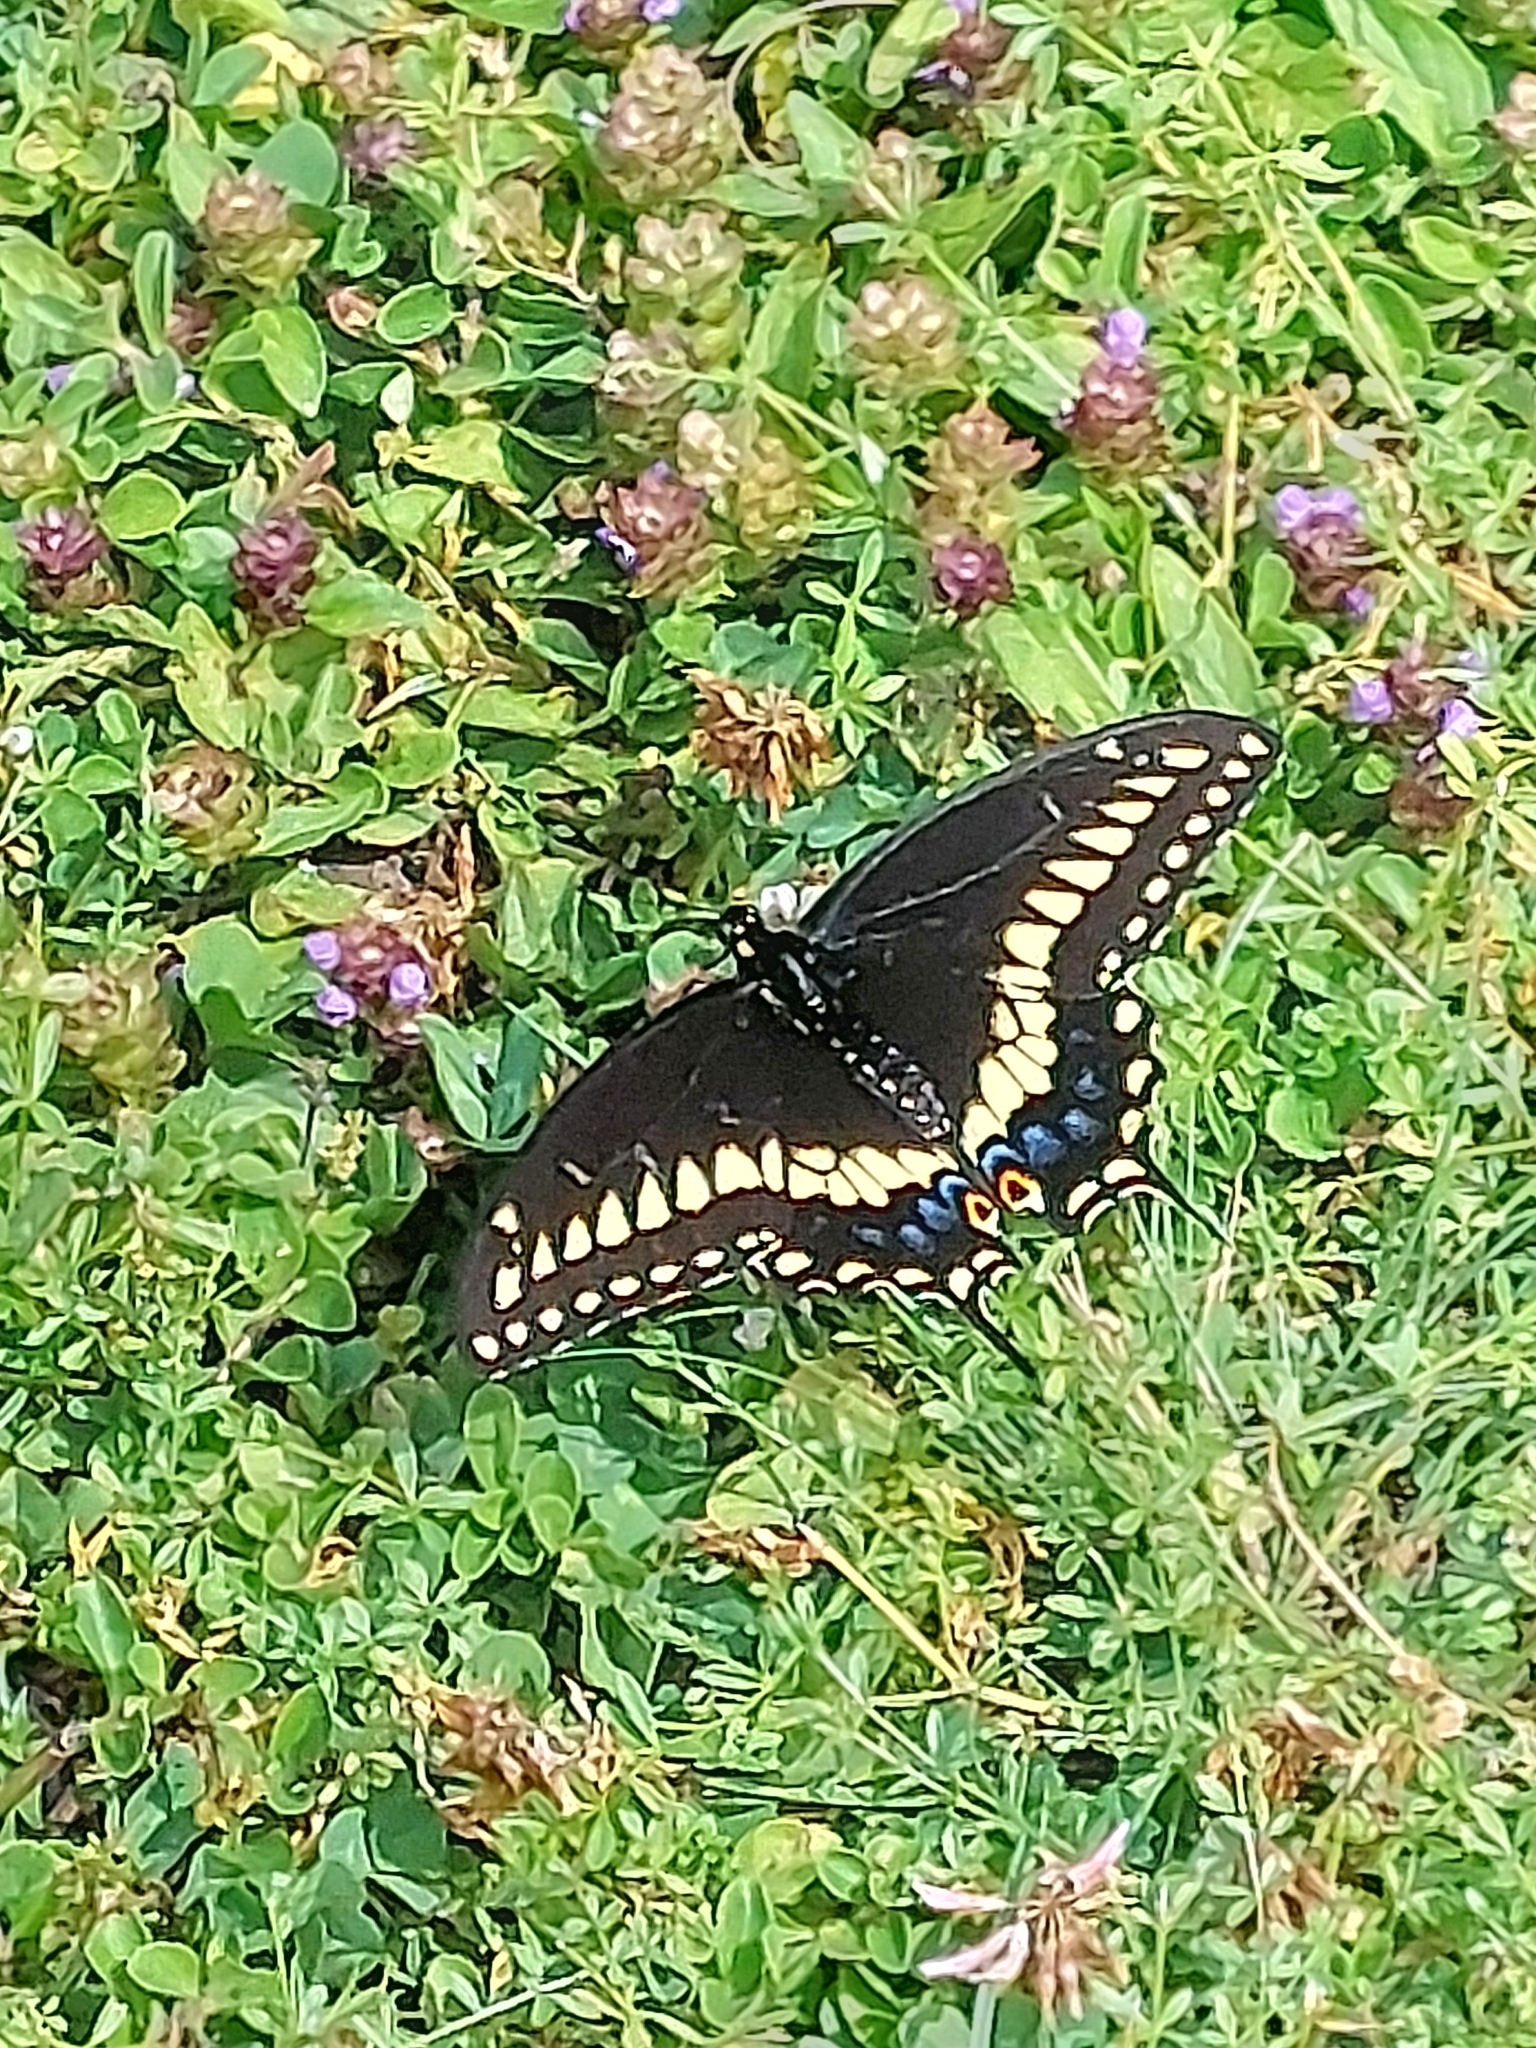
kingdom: Animalia
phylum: Arthropoda
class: Insecta
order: Lepidoptera
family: Papilionidae
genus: Papilio
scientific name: Papilio polyxenes
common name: Black swallowtail
